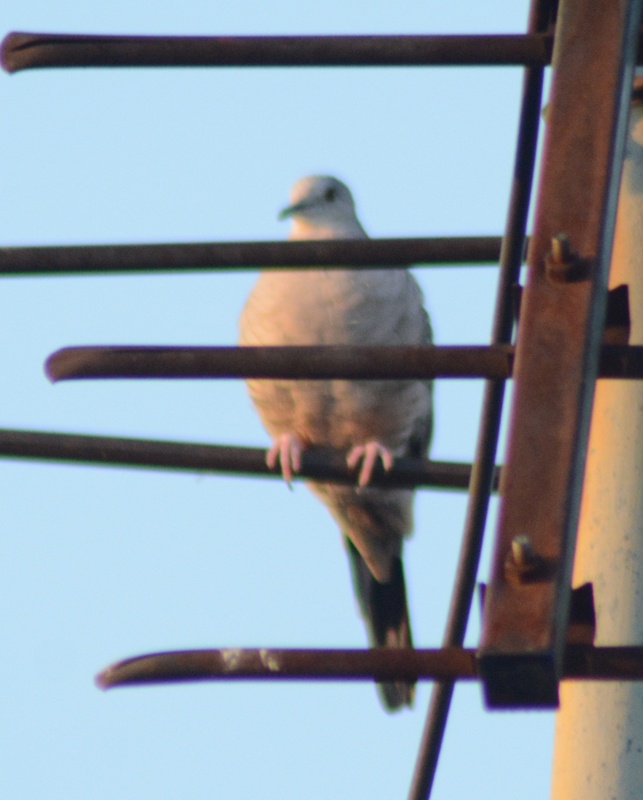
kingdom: Animalia
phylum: Chordata
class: Aves
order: Columbiformes
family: Columbidae
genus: Columbina
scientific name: Columbina inca
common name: Inca dove
